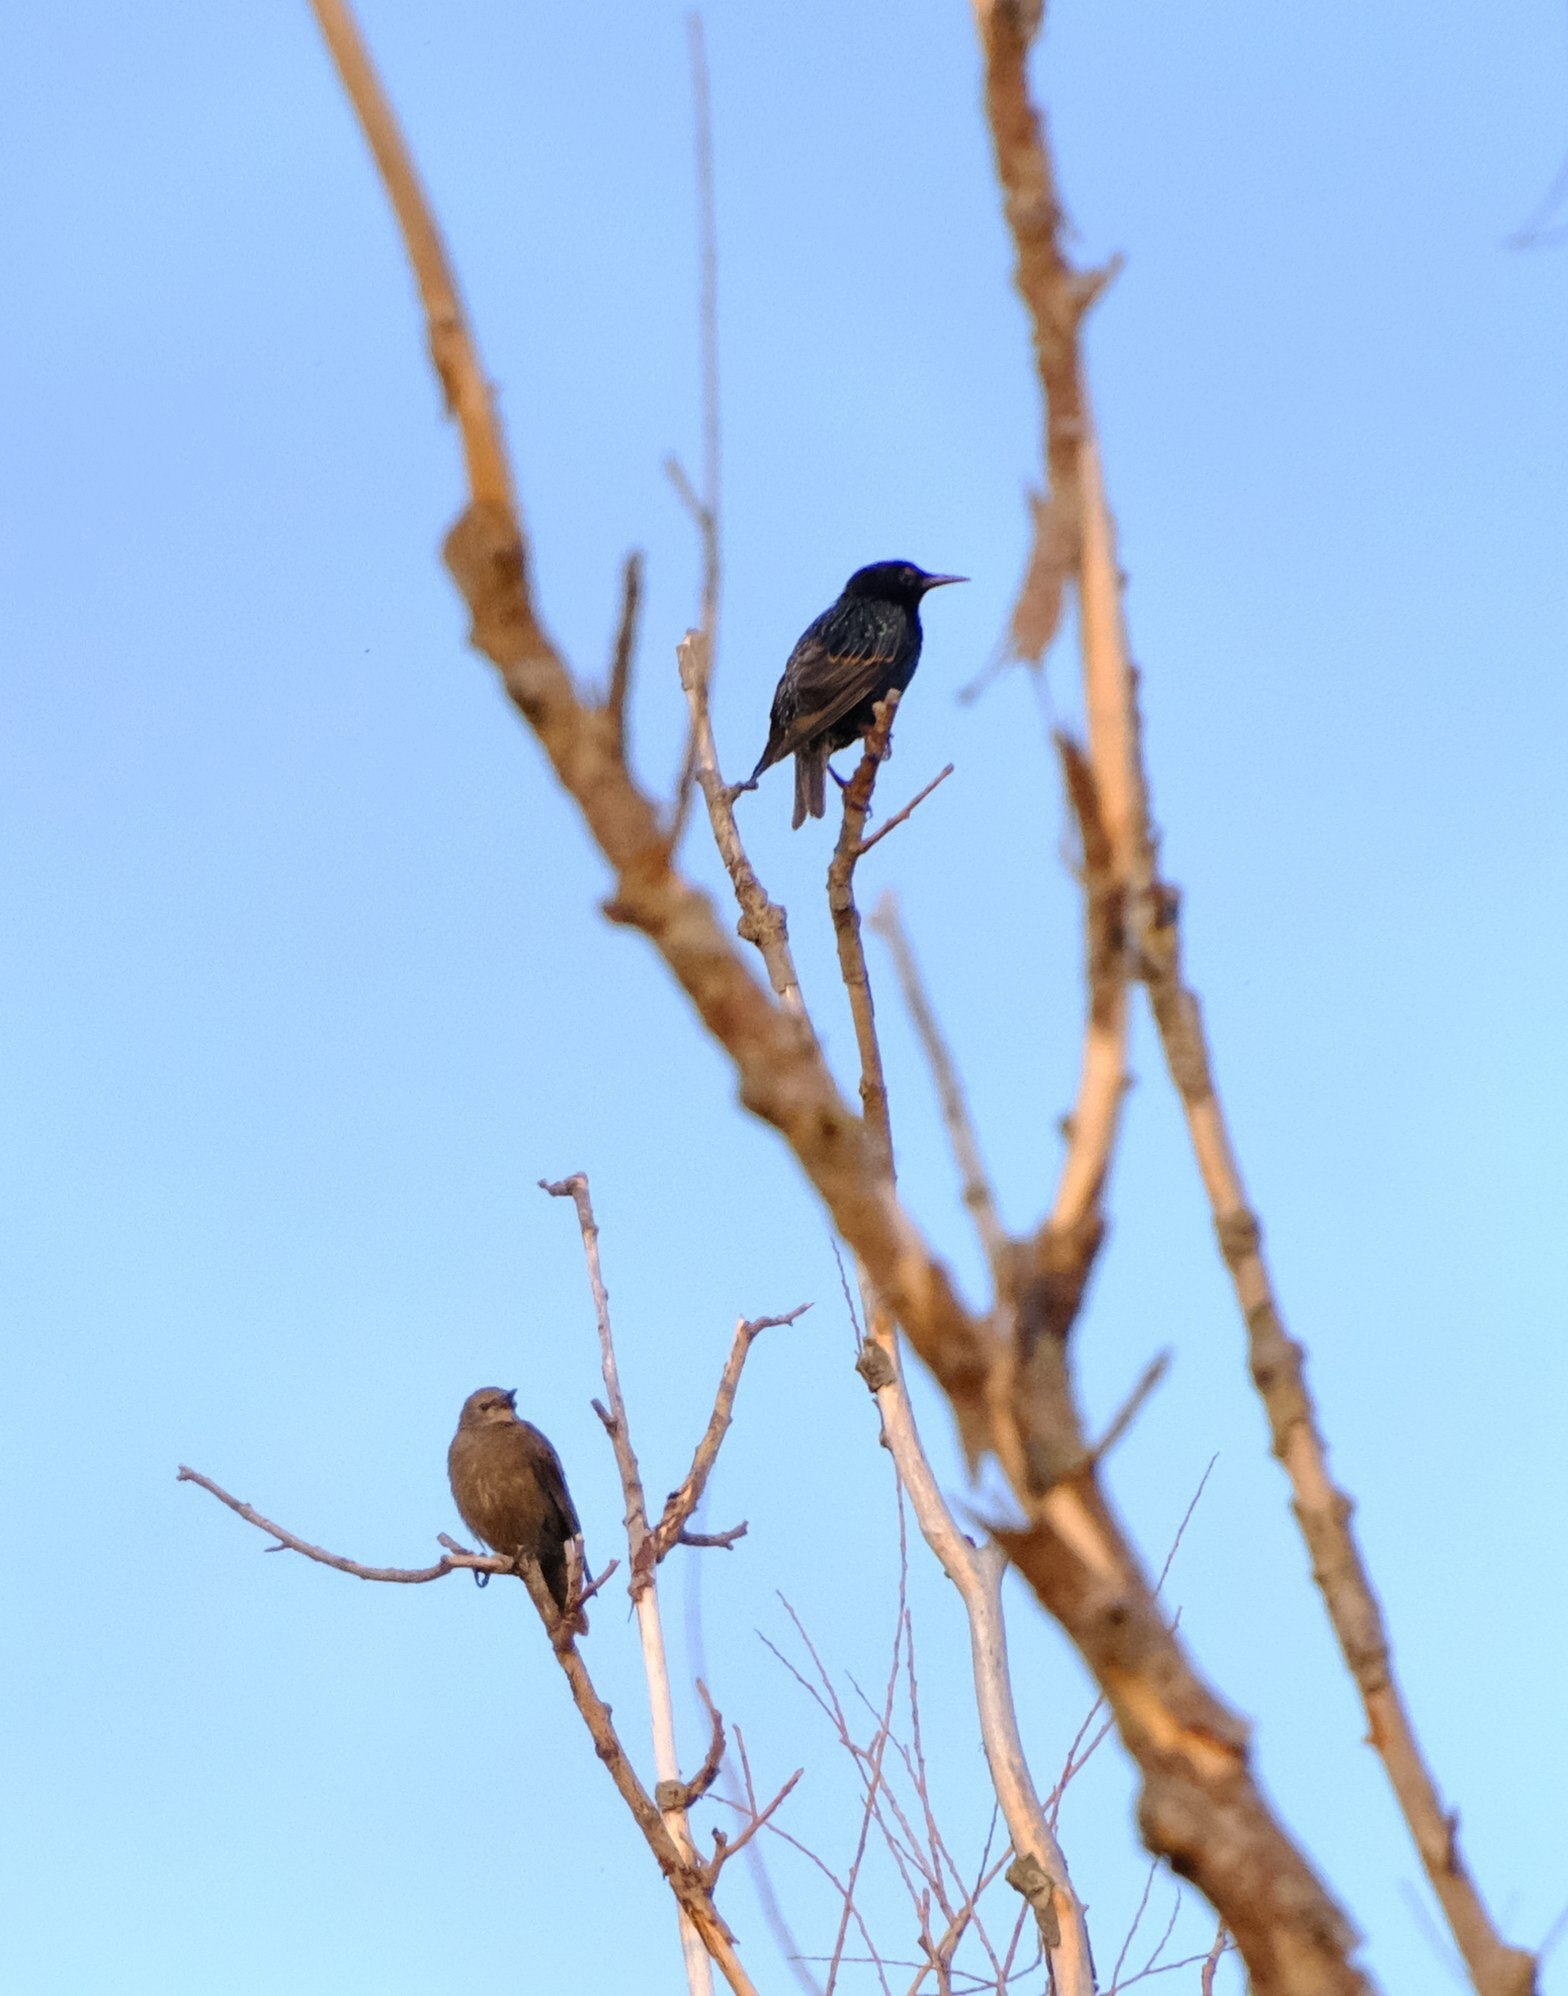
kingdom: Animalia
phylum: Chordata
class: Aves
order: Passeriformes
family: Sturnidae
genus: Sturnus
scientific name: Sturnus vulgaris
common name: Common starling
